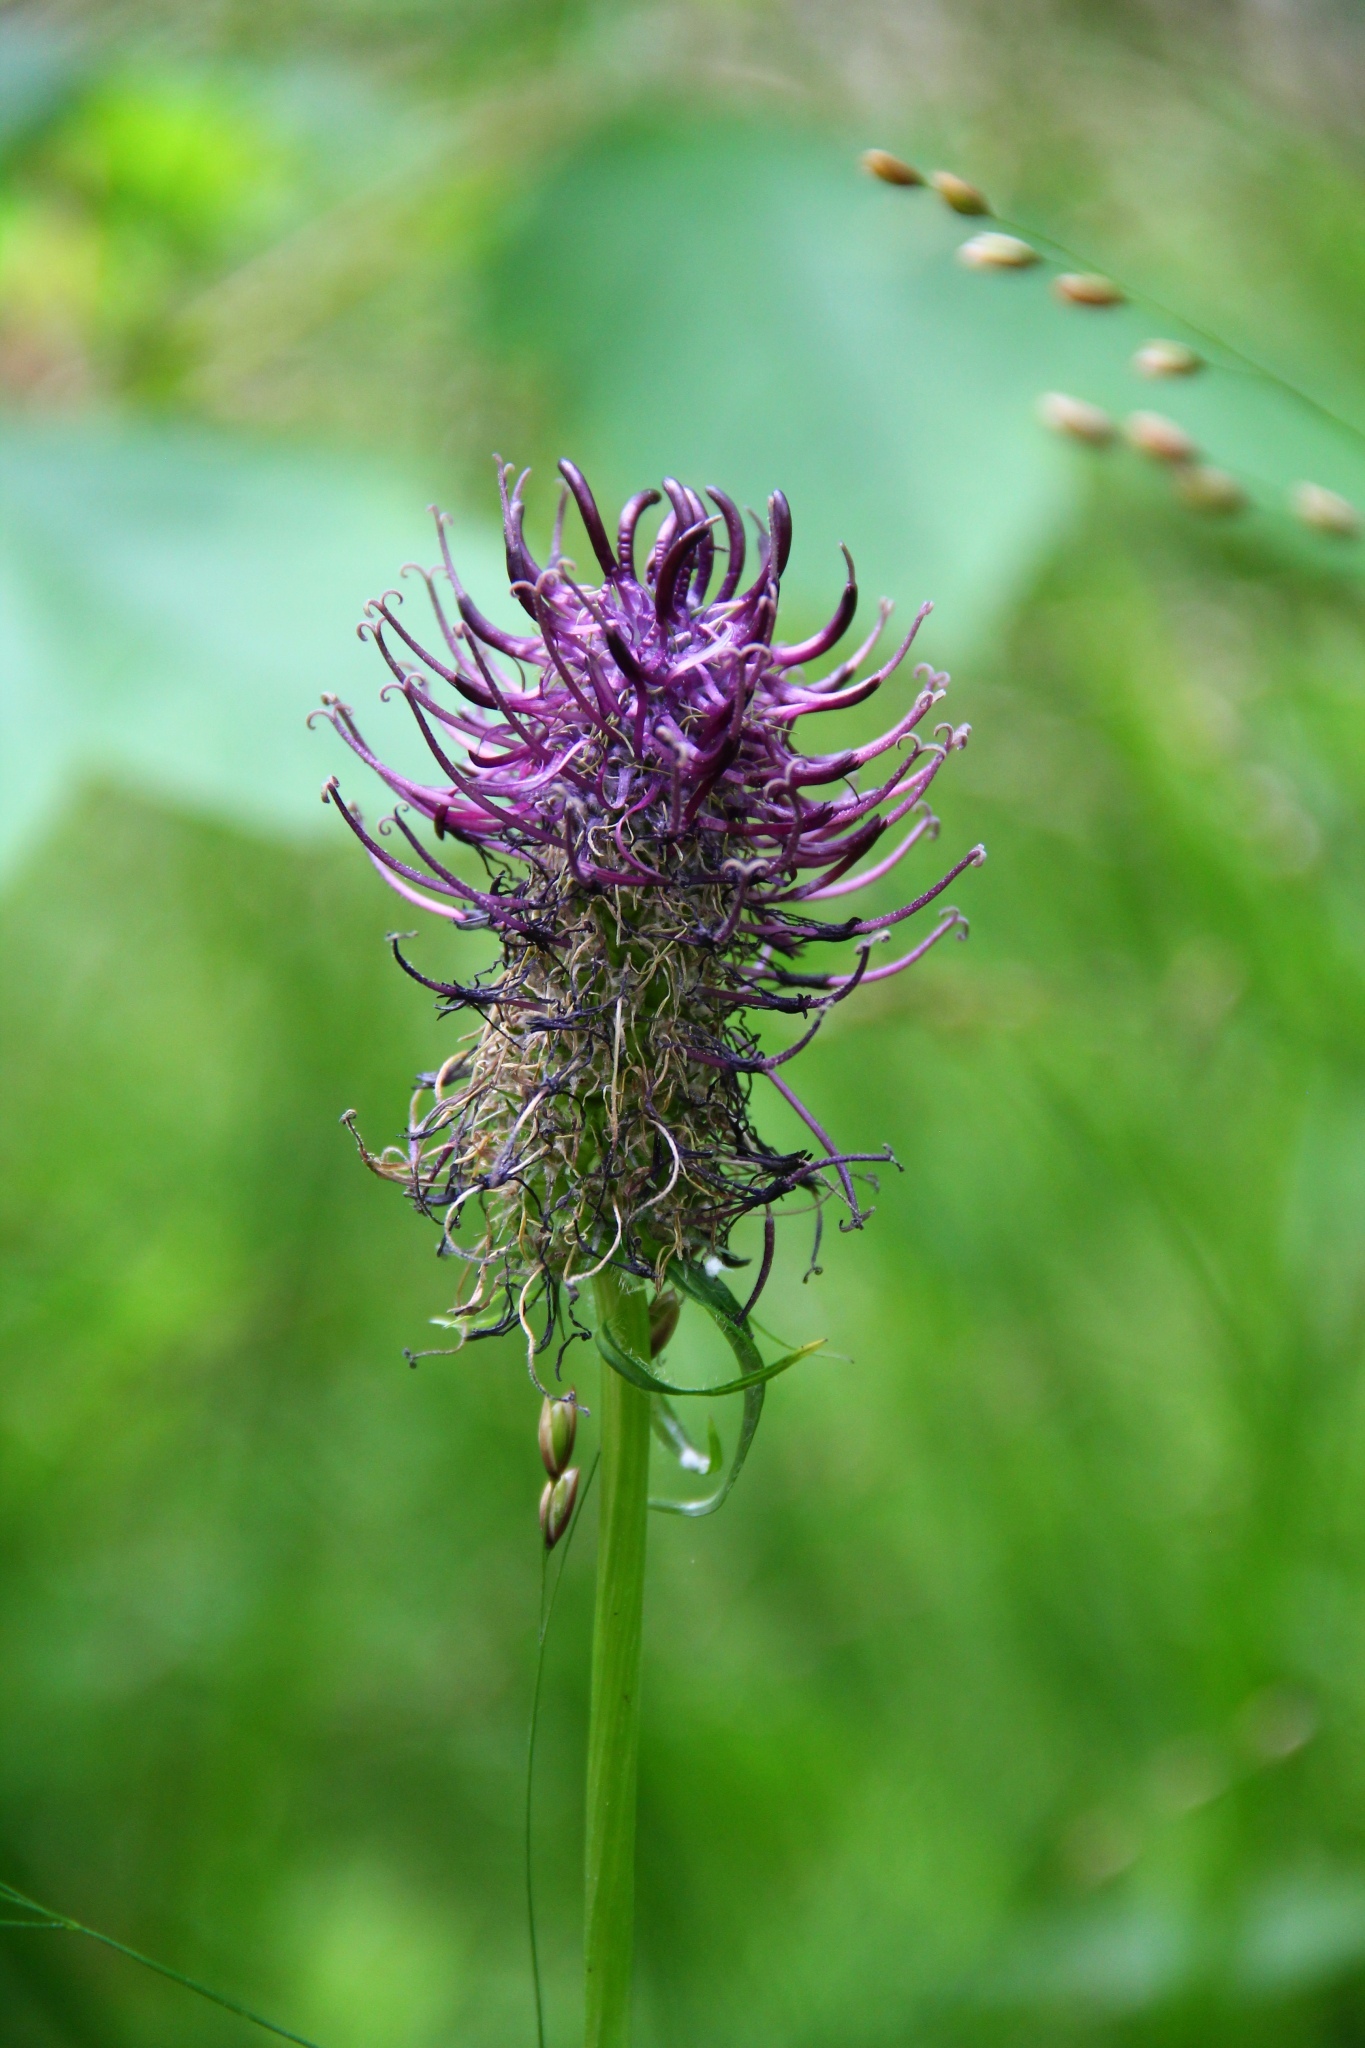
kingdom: Plantae
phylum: Tracheophyta
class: Magnoliopsida
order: Asterales
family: Campanulaceae
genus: Phyteuma
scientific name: Phyteuma nigrum
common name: Black rampion
